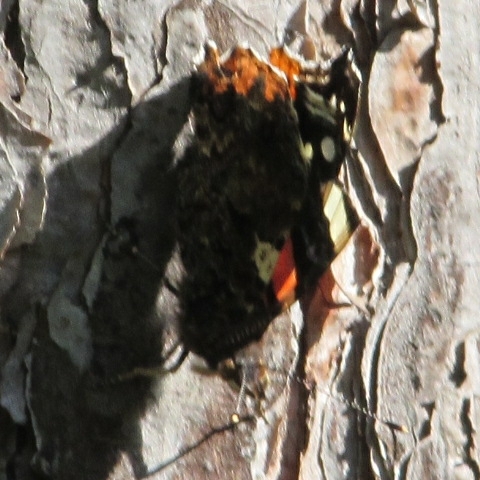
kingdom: Animalia
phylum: Arthropoda
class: Insecta
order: Lepidoptera
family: Nymphalidae
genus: Vanessa
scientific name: Vanessa atalanta
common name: Red admiral
